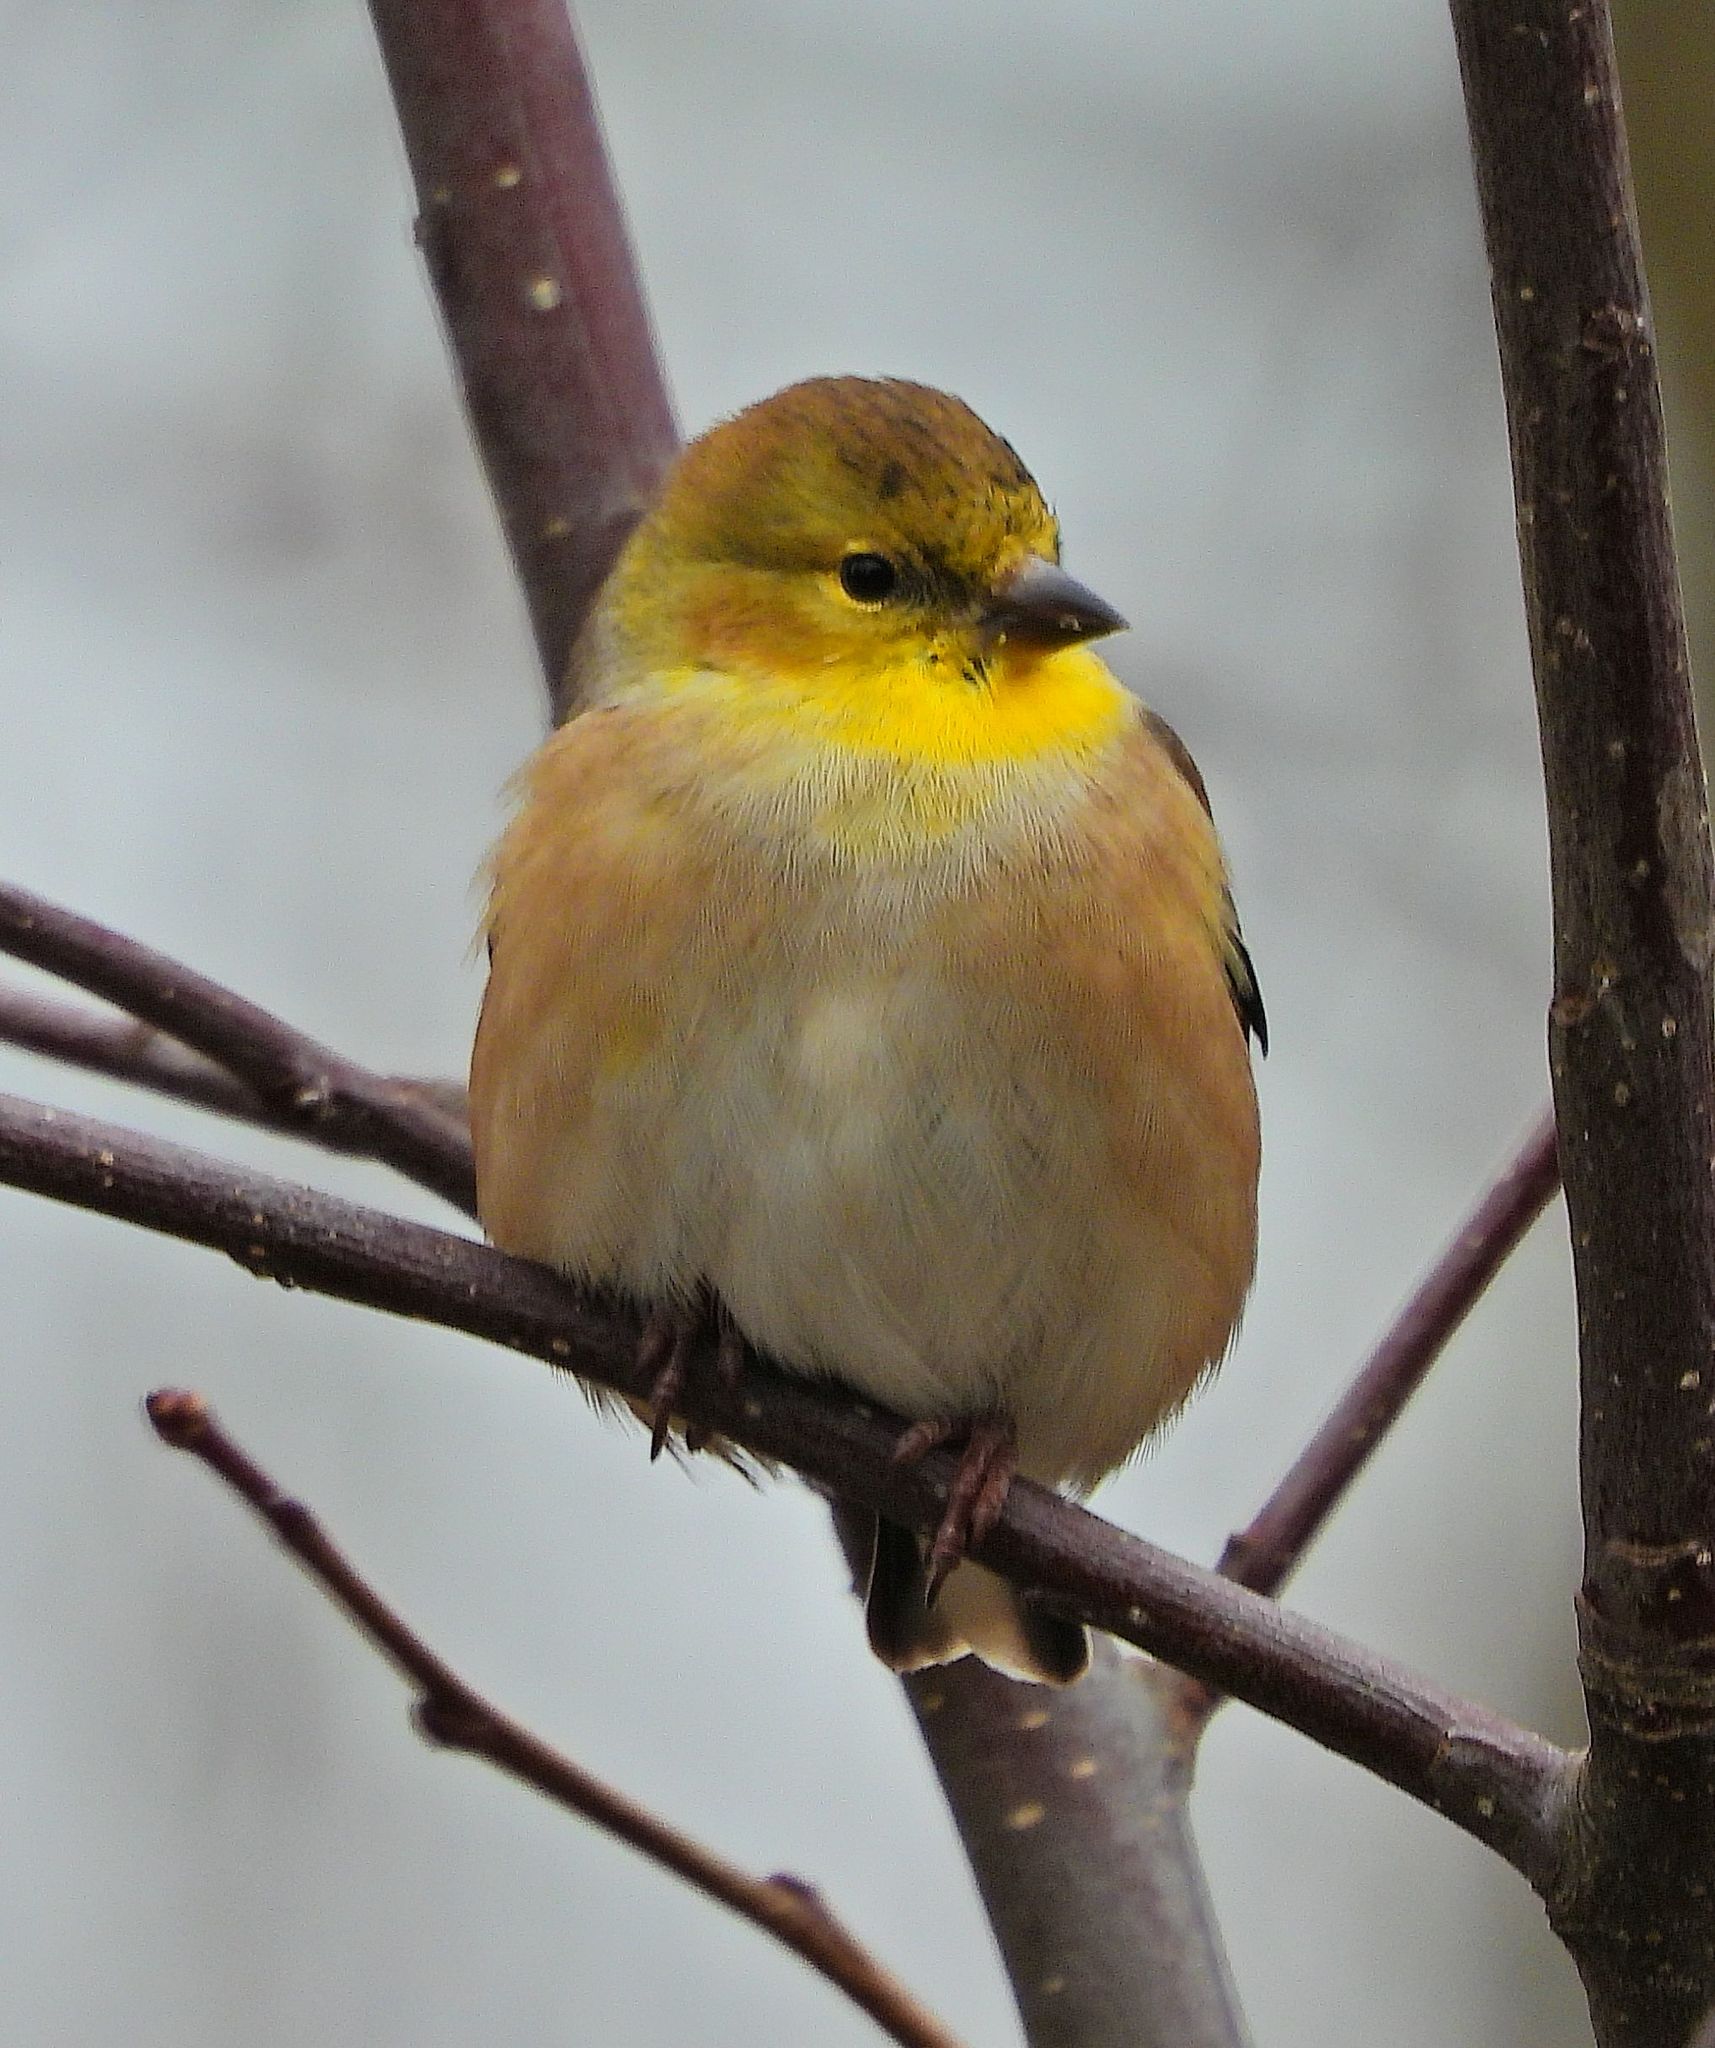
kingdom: Animalia
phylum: Chordata
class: Aves
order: Passeriformes
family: Fringillidae
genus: Spinus
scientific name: Spinus tristis
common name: American goldfinch
